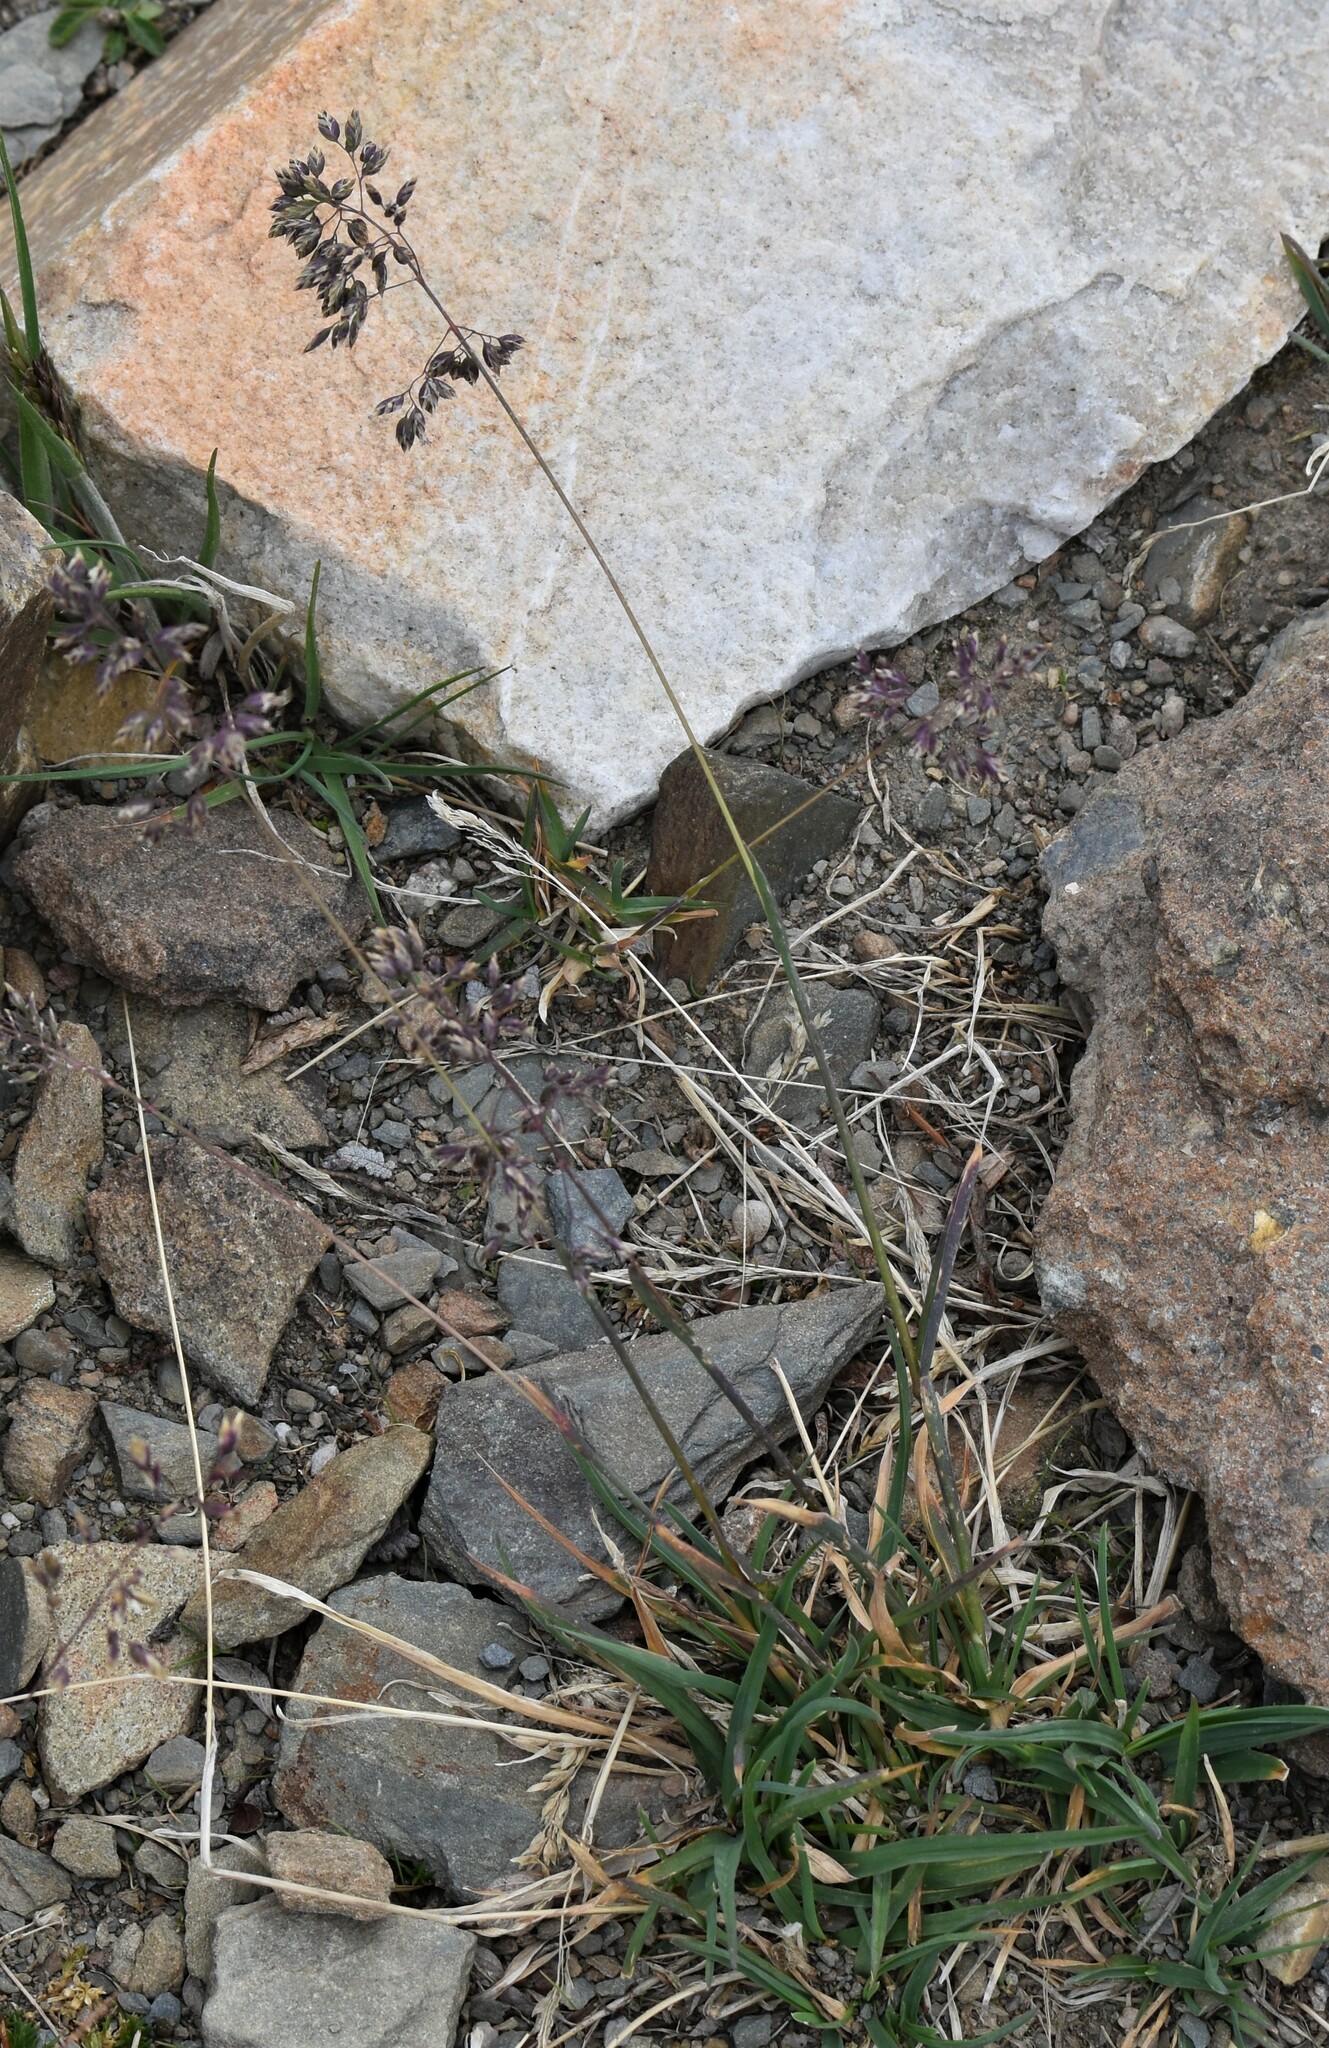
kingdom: Plantae
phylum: Tracheophyta
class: Liliopsida
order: Poales
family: Poaceae
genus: Poa
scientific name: Poa alpina
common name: Alpine bluegrass
